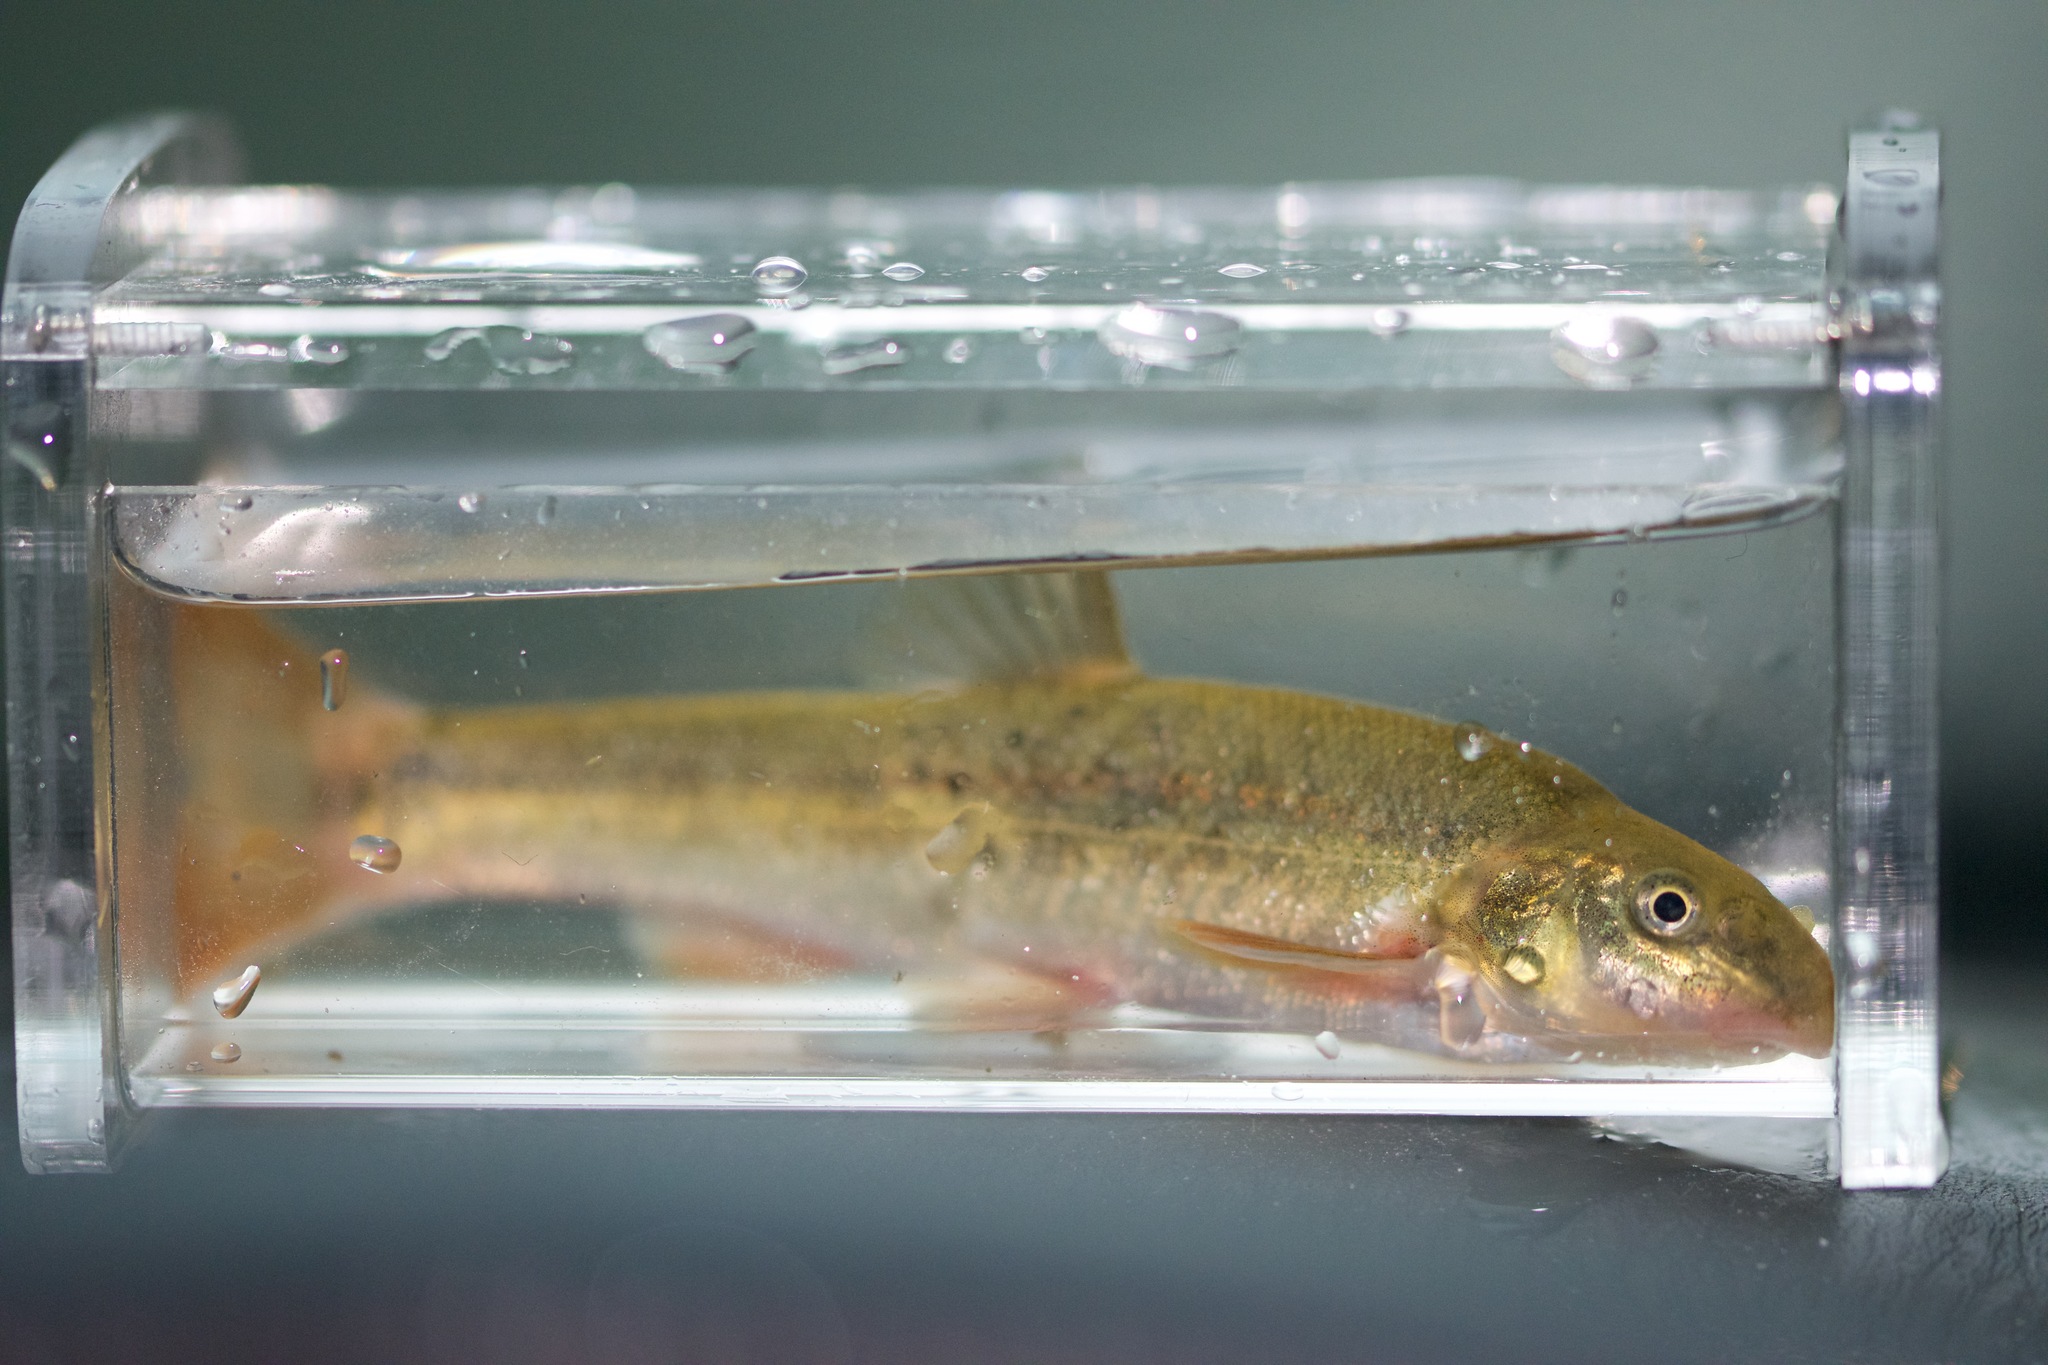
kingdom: Animalia
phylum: Chordata
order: Cypriniformes
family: Cyprinidae
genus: Rhinichthys
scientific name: Rhinichthys cataractae
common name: Longnose dace
